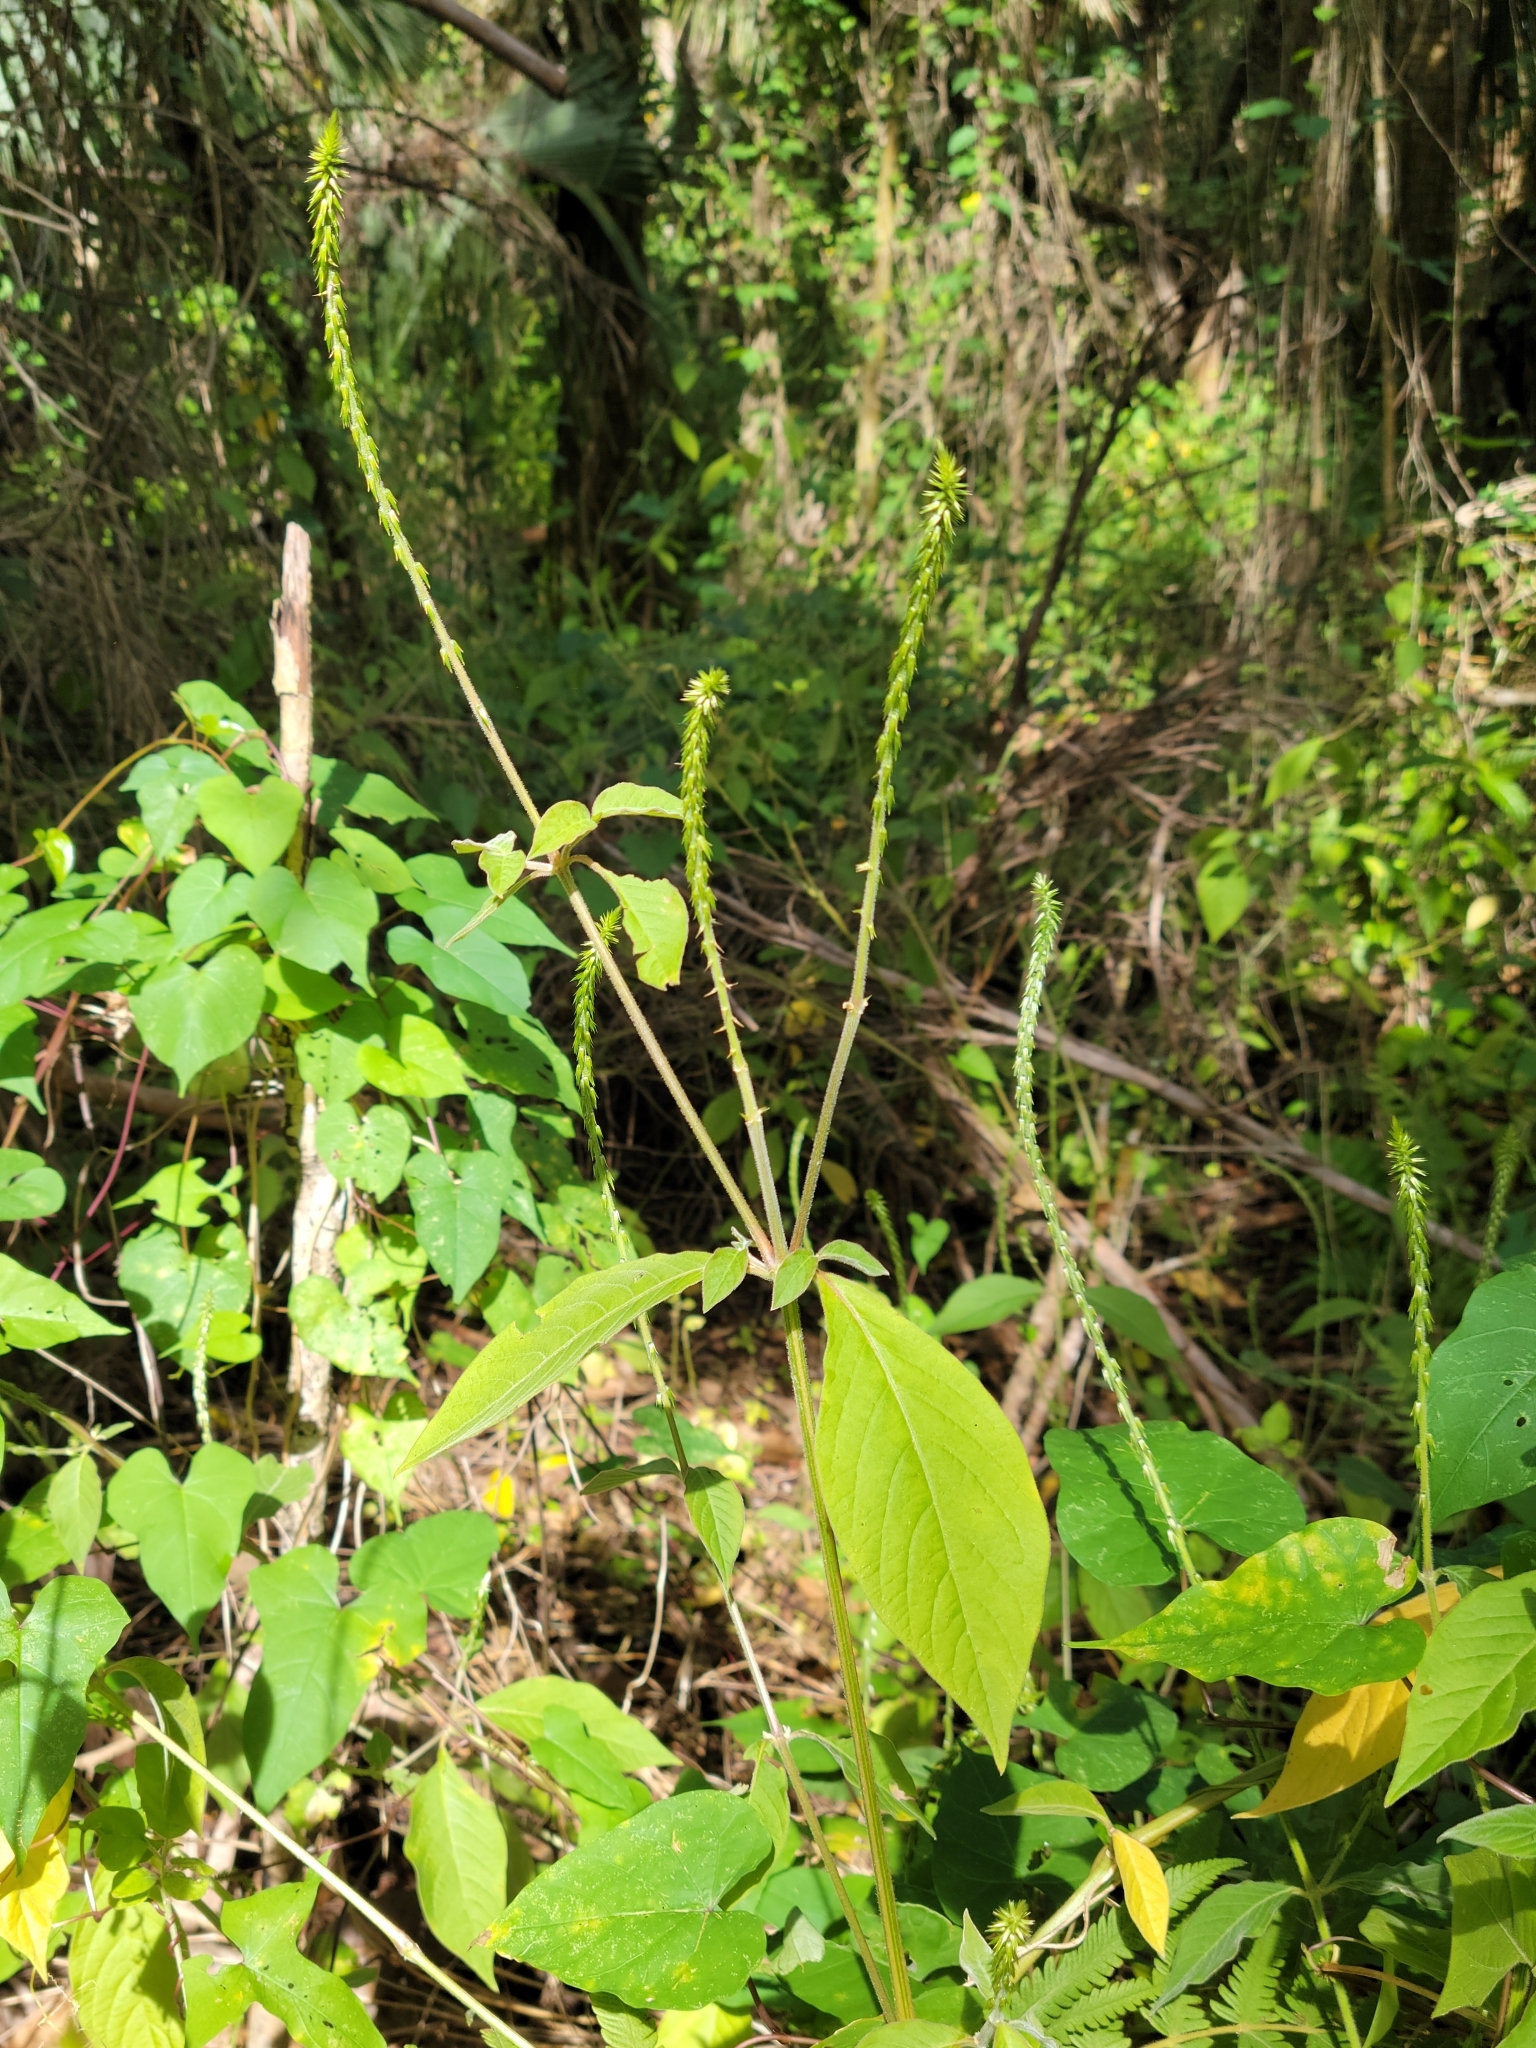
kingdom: Plantae
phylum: Tracheophyta
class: Magnoliopsida
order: Caryophyllales
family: Amaranthaceae
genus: Achyranthes
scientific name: Achyranthes aspera
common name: Devil's horsewhip
